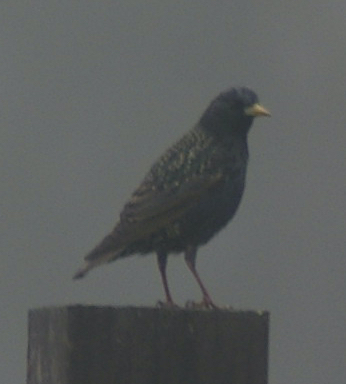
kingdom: Animalia
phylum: Chordata
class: Aves
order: Passeriformes
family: Sturnidae
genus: Sturnus
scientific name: Sturnus vulgaris
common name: Common starling
